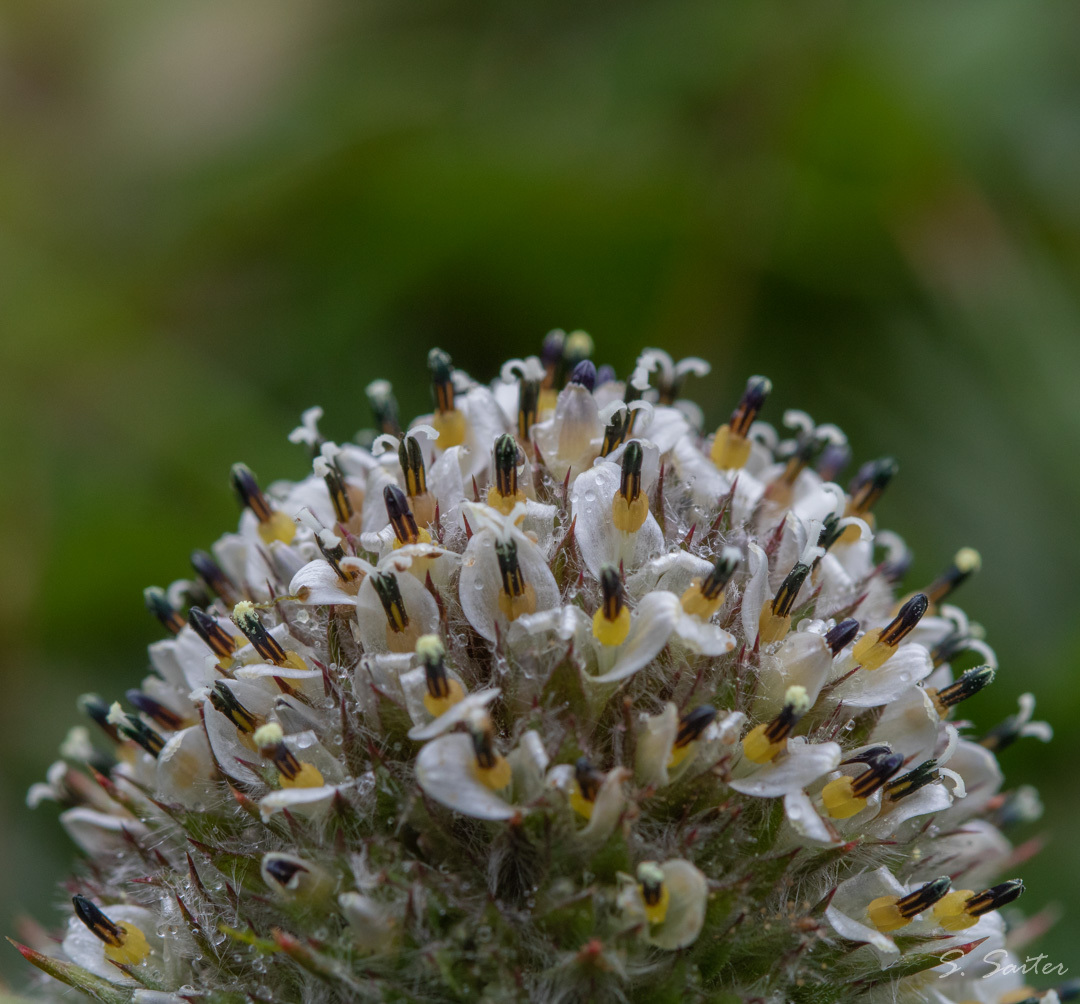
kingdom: Plantae
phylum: Tracheophyta
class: Magnoliopsida
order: Asterales
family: Asteraceae
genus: Nassauvia
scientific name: Nassauvia magellanica
